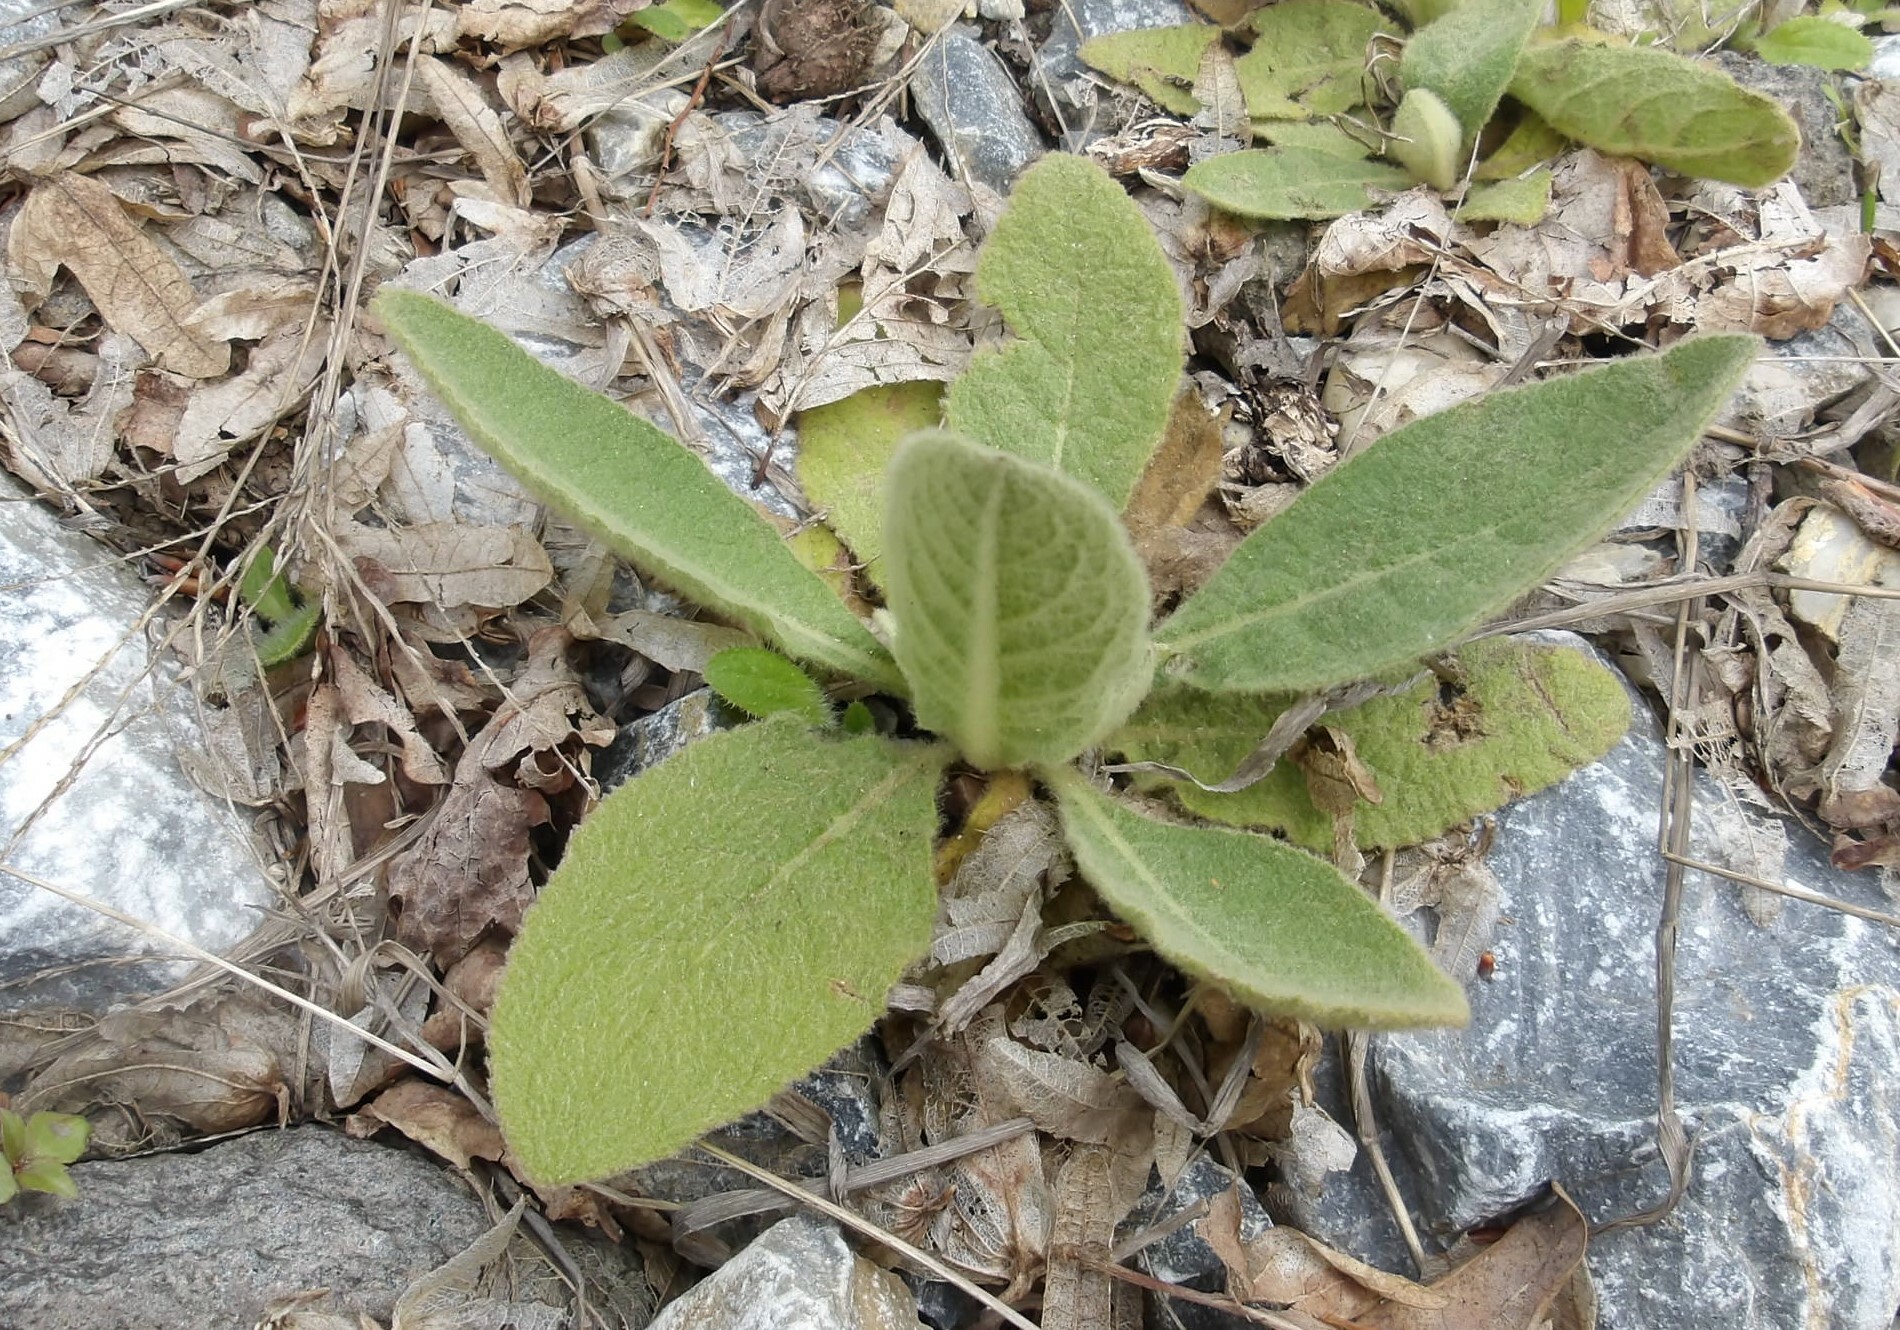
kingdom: Plantae
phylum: Tracheophyta
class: Magnoliopsida
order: Lamiales
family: Scrophulariaceae
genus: Verbascum
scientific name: Verbascum thapsus
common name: Common mullein
